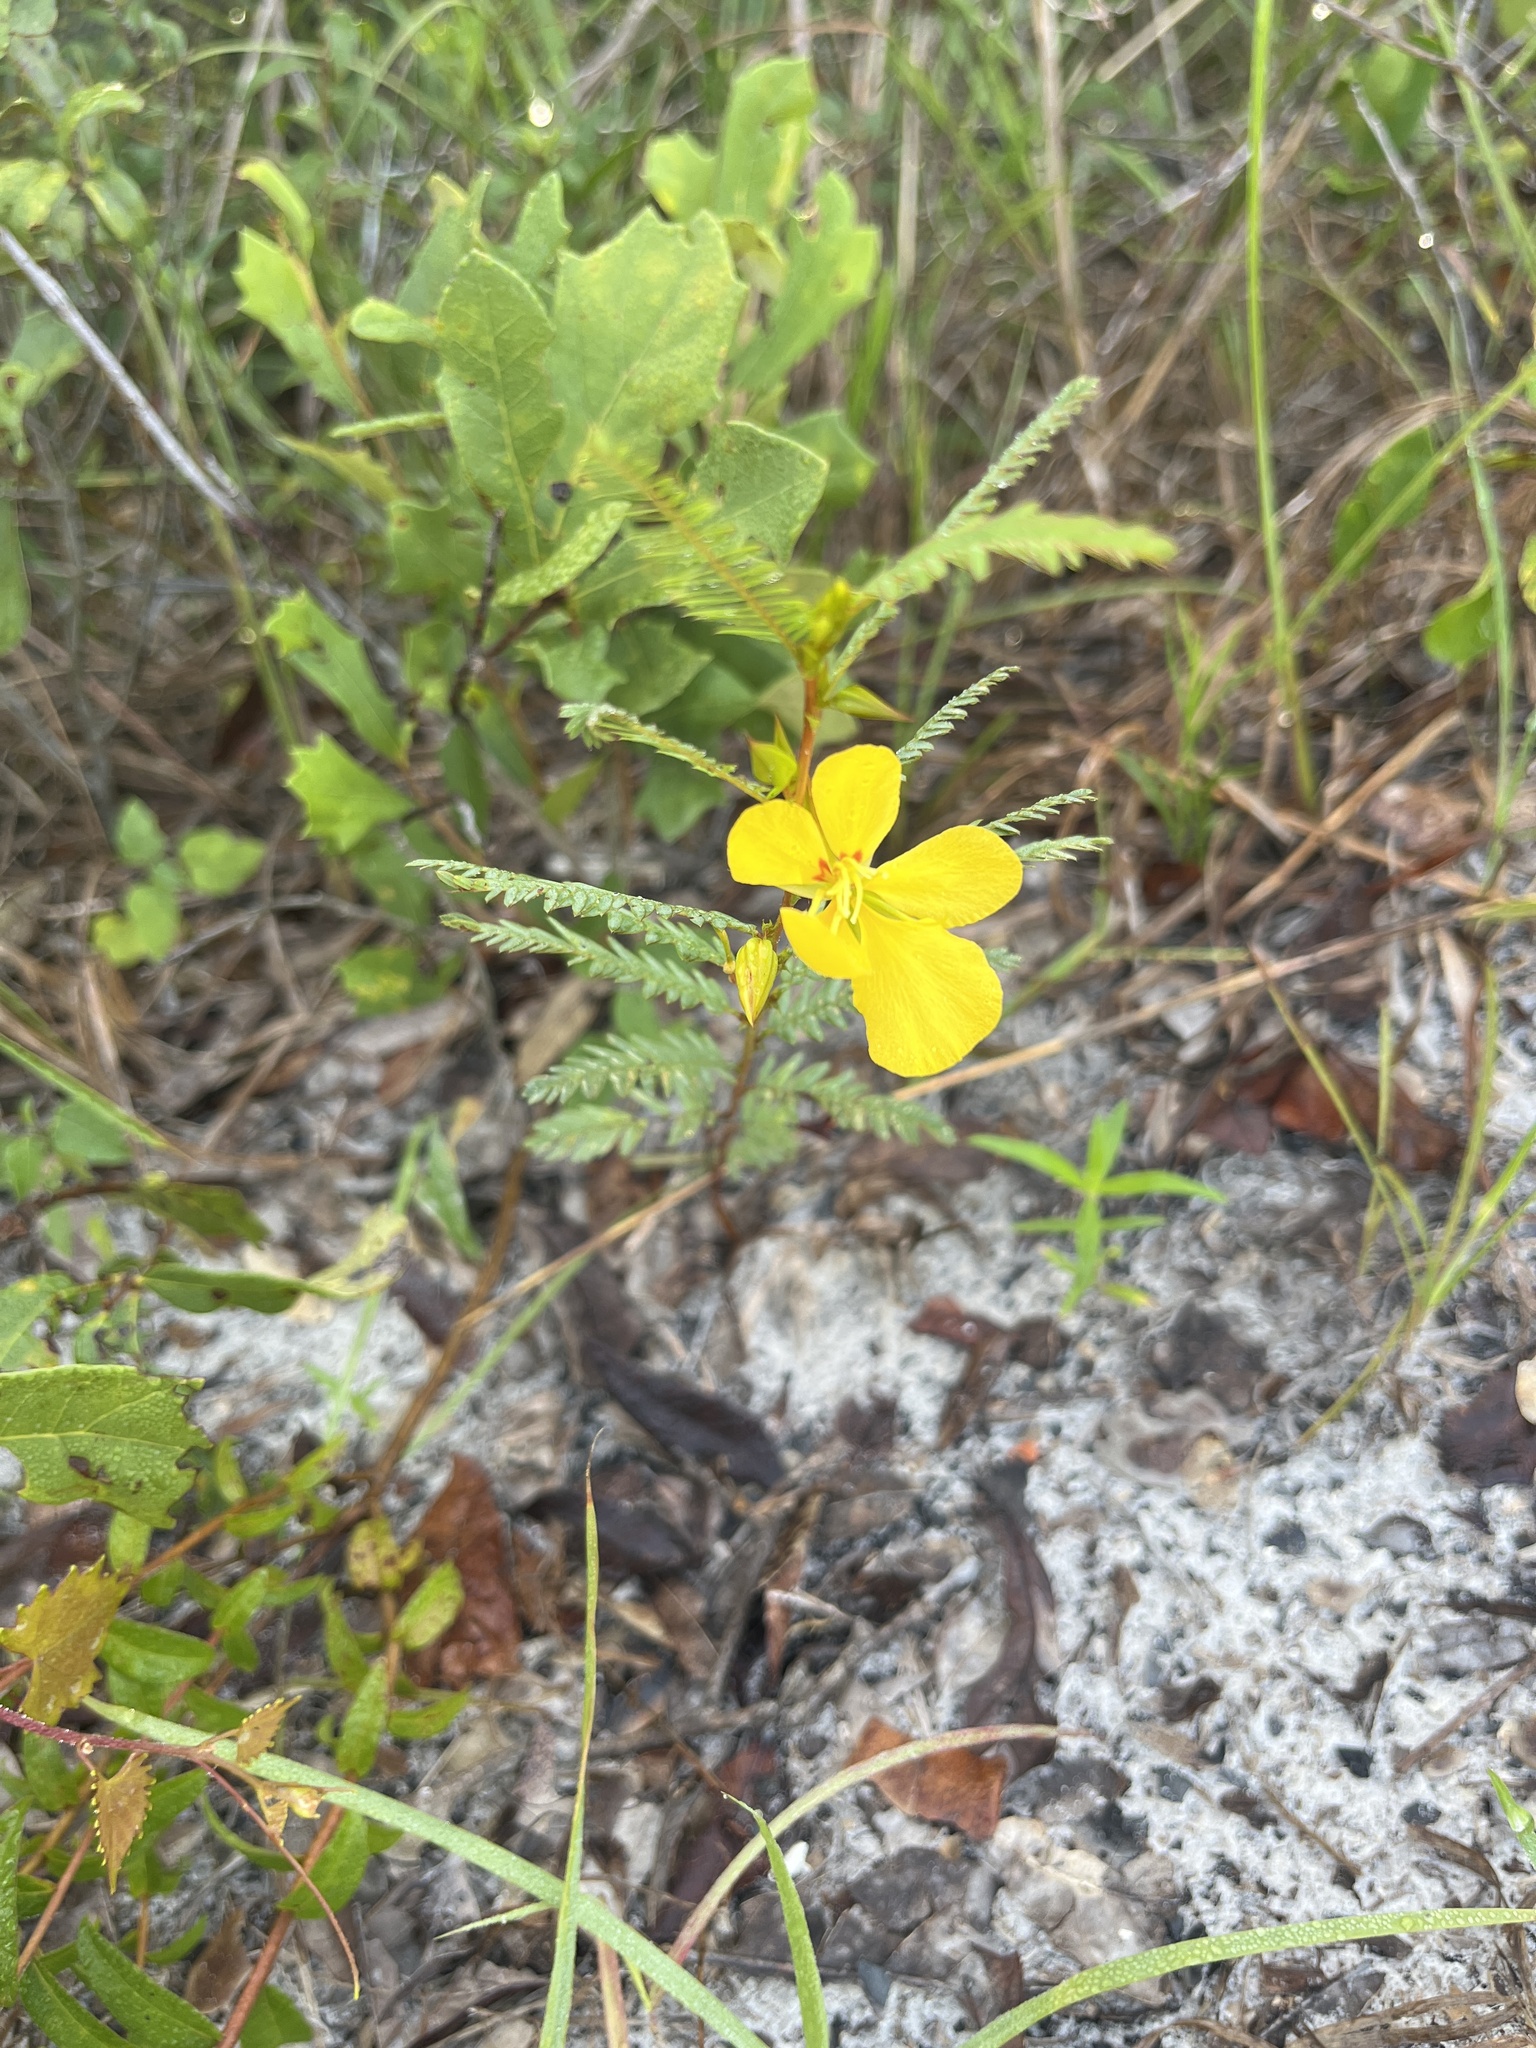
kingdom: Plantae
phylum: Tracheophyta
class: Magnoliopsida
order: Fabales
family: Fabaceae
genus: Chamaecrista
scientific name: Chamaecrista fasciculata
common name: Golden cassia
